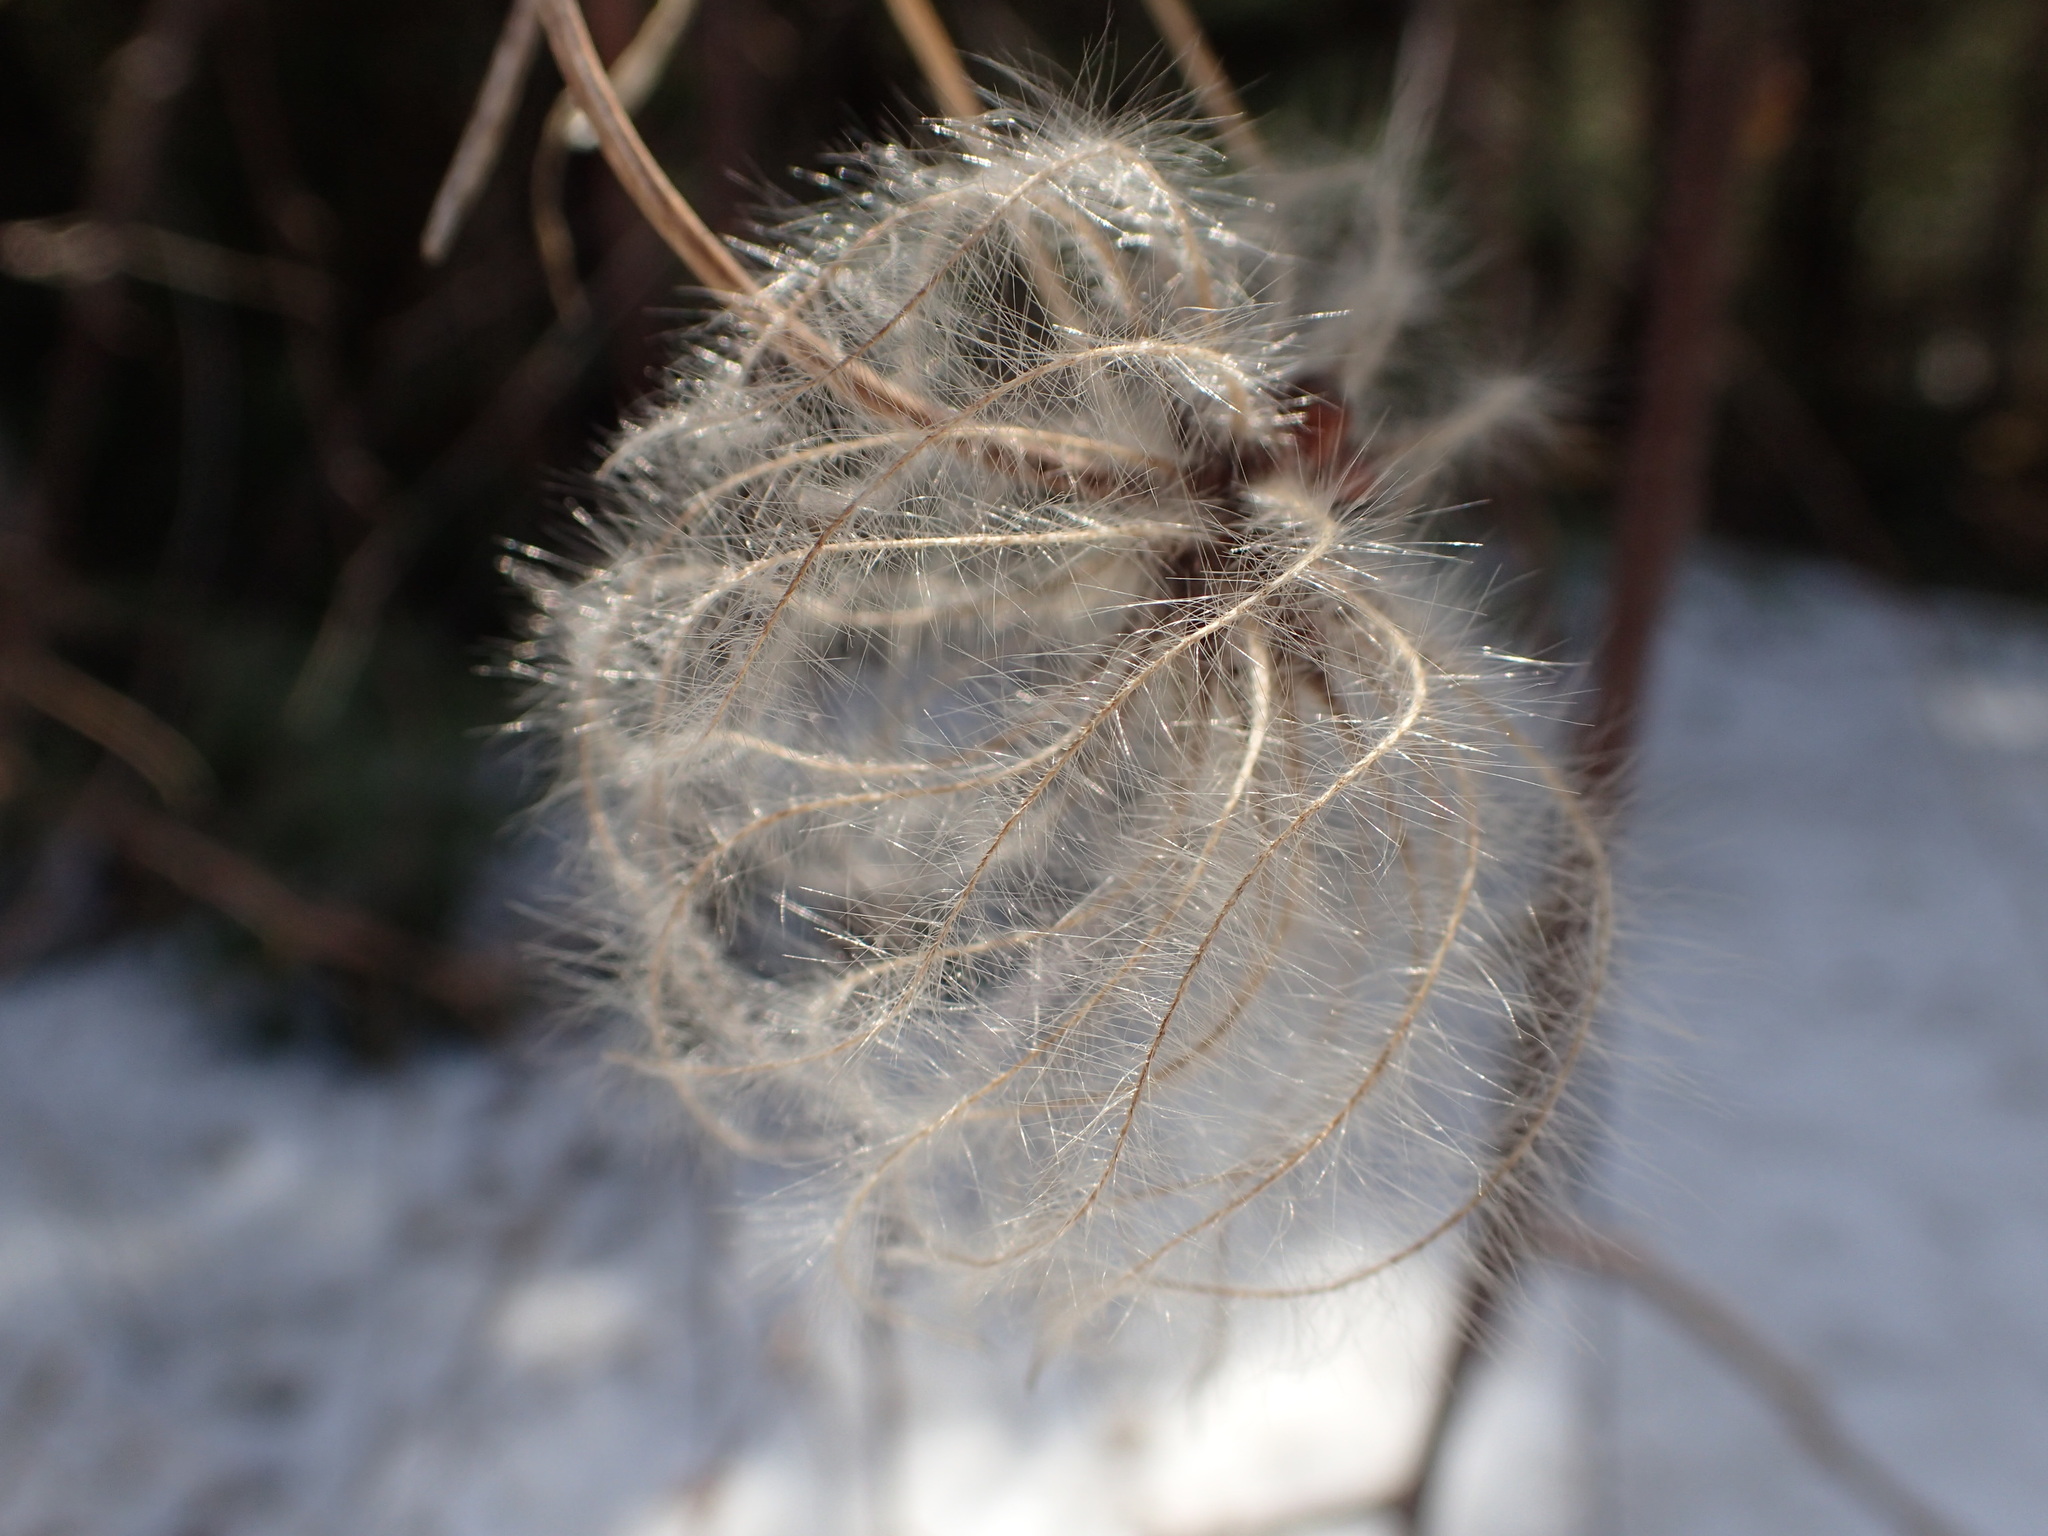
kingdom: Plantae
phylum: Tracheophyta
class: Magnoliopsida
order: Ranunculales
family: Ranunculaceae
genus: Clematis
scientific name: Clematis occidentalis
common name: Purple clematis
